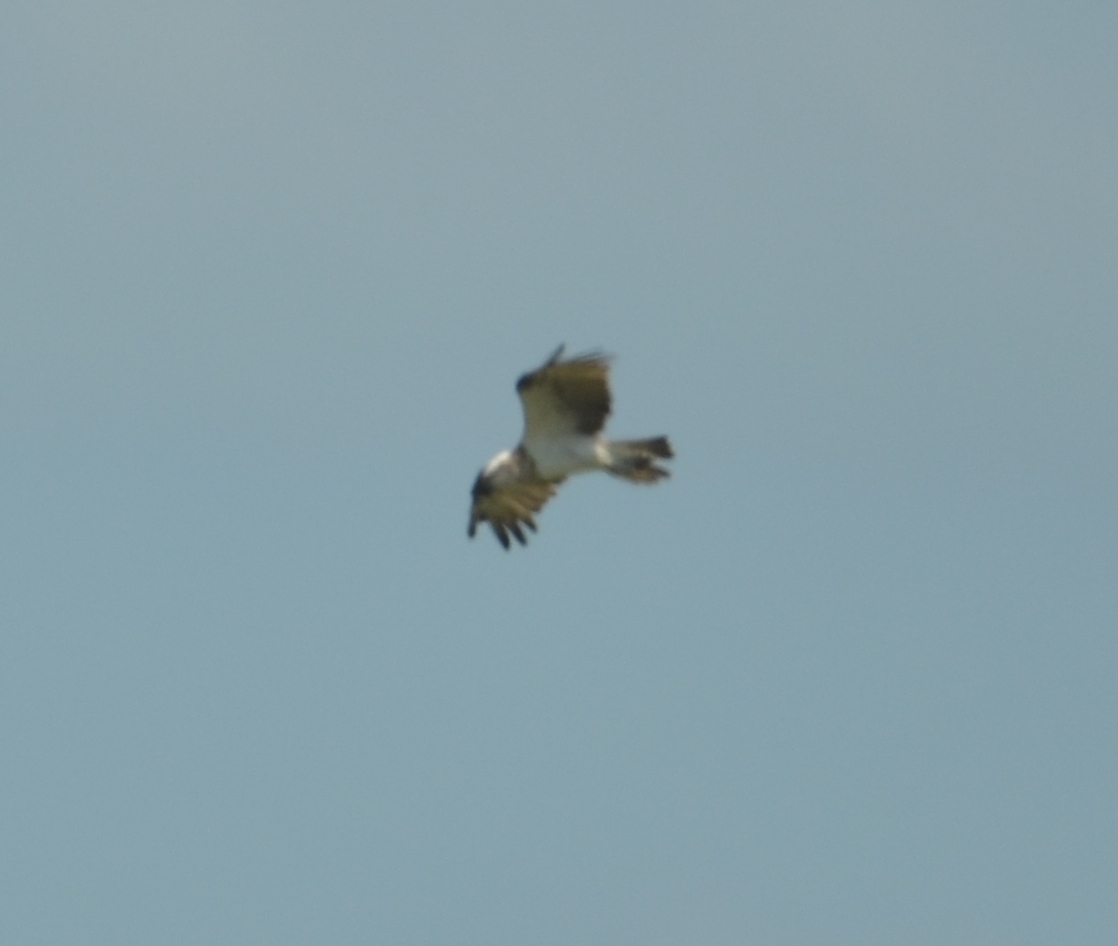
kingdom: Animalia
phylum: Chordata
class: Aves
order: Accipitriformes
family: Pandionidae
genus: Pandion
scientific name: Pandion cristatus
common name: Eastern osprey
